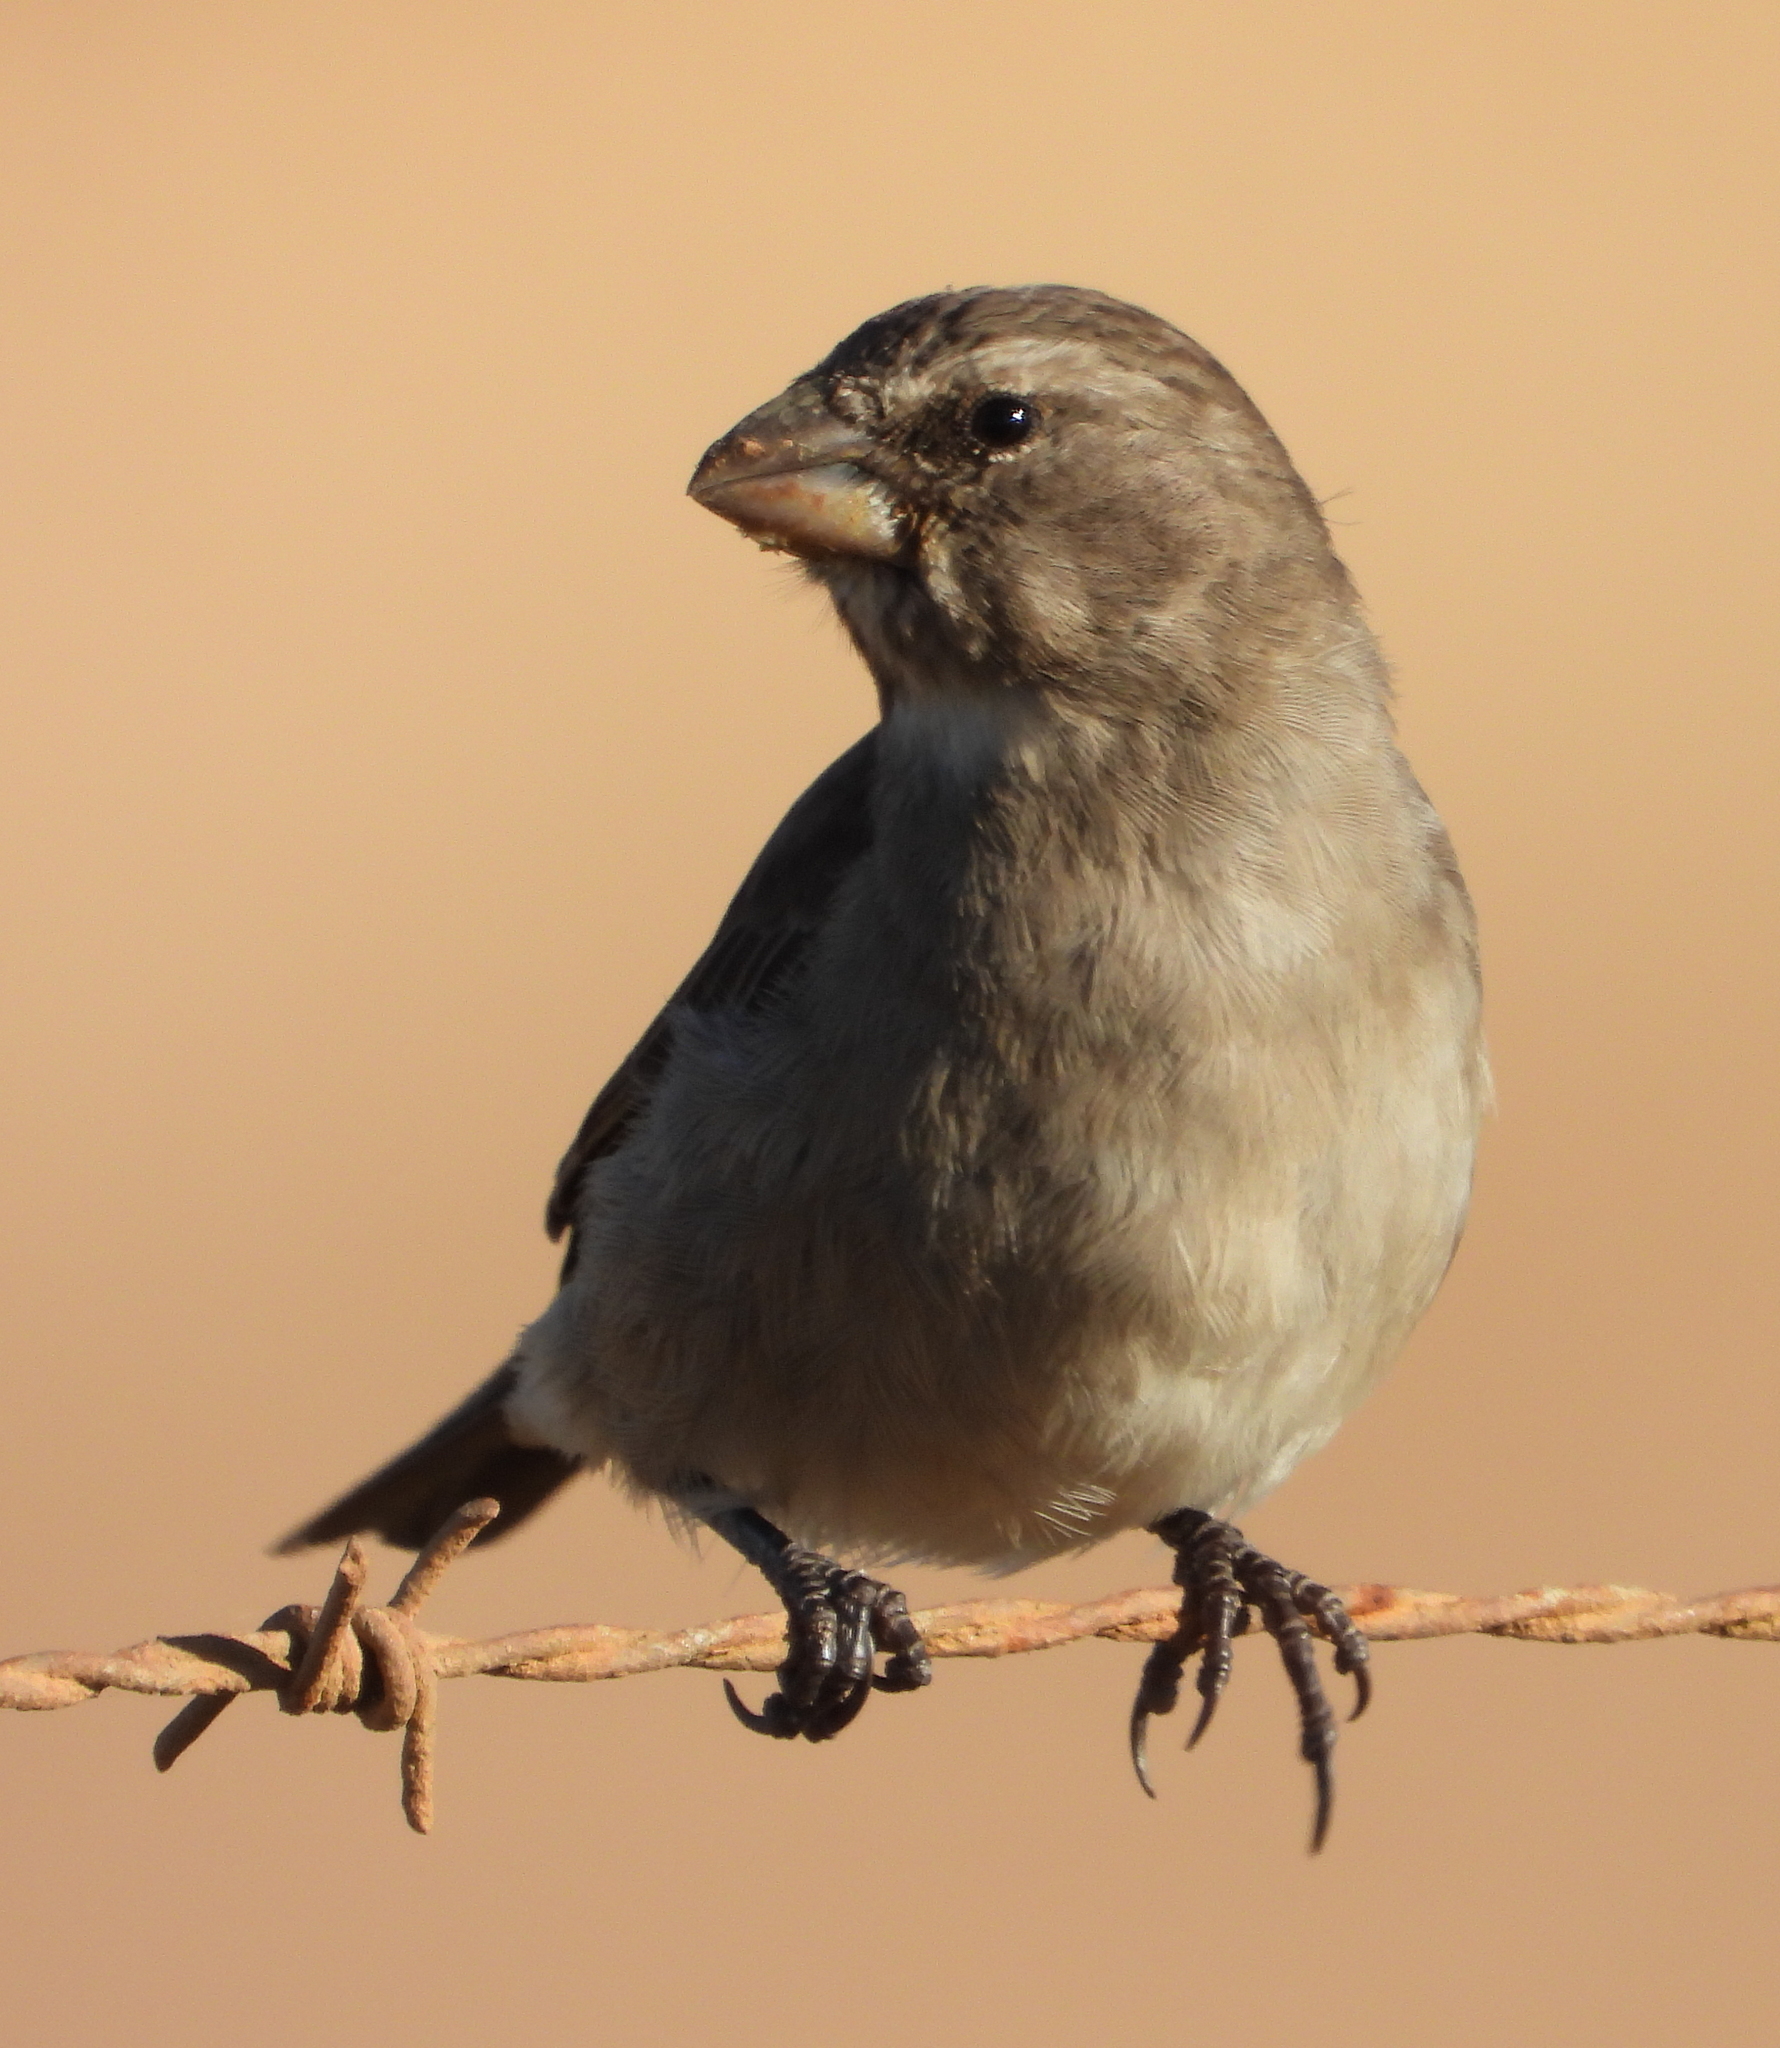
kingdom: Animalia
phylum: Chordata
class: Aves
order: Passeriformes
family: Fringillidae
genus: Crithagra
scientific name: Crithagra albogularis
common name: White-throated canary
